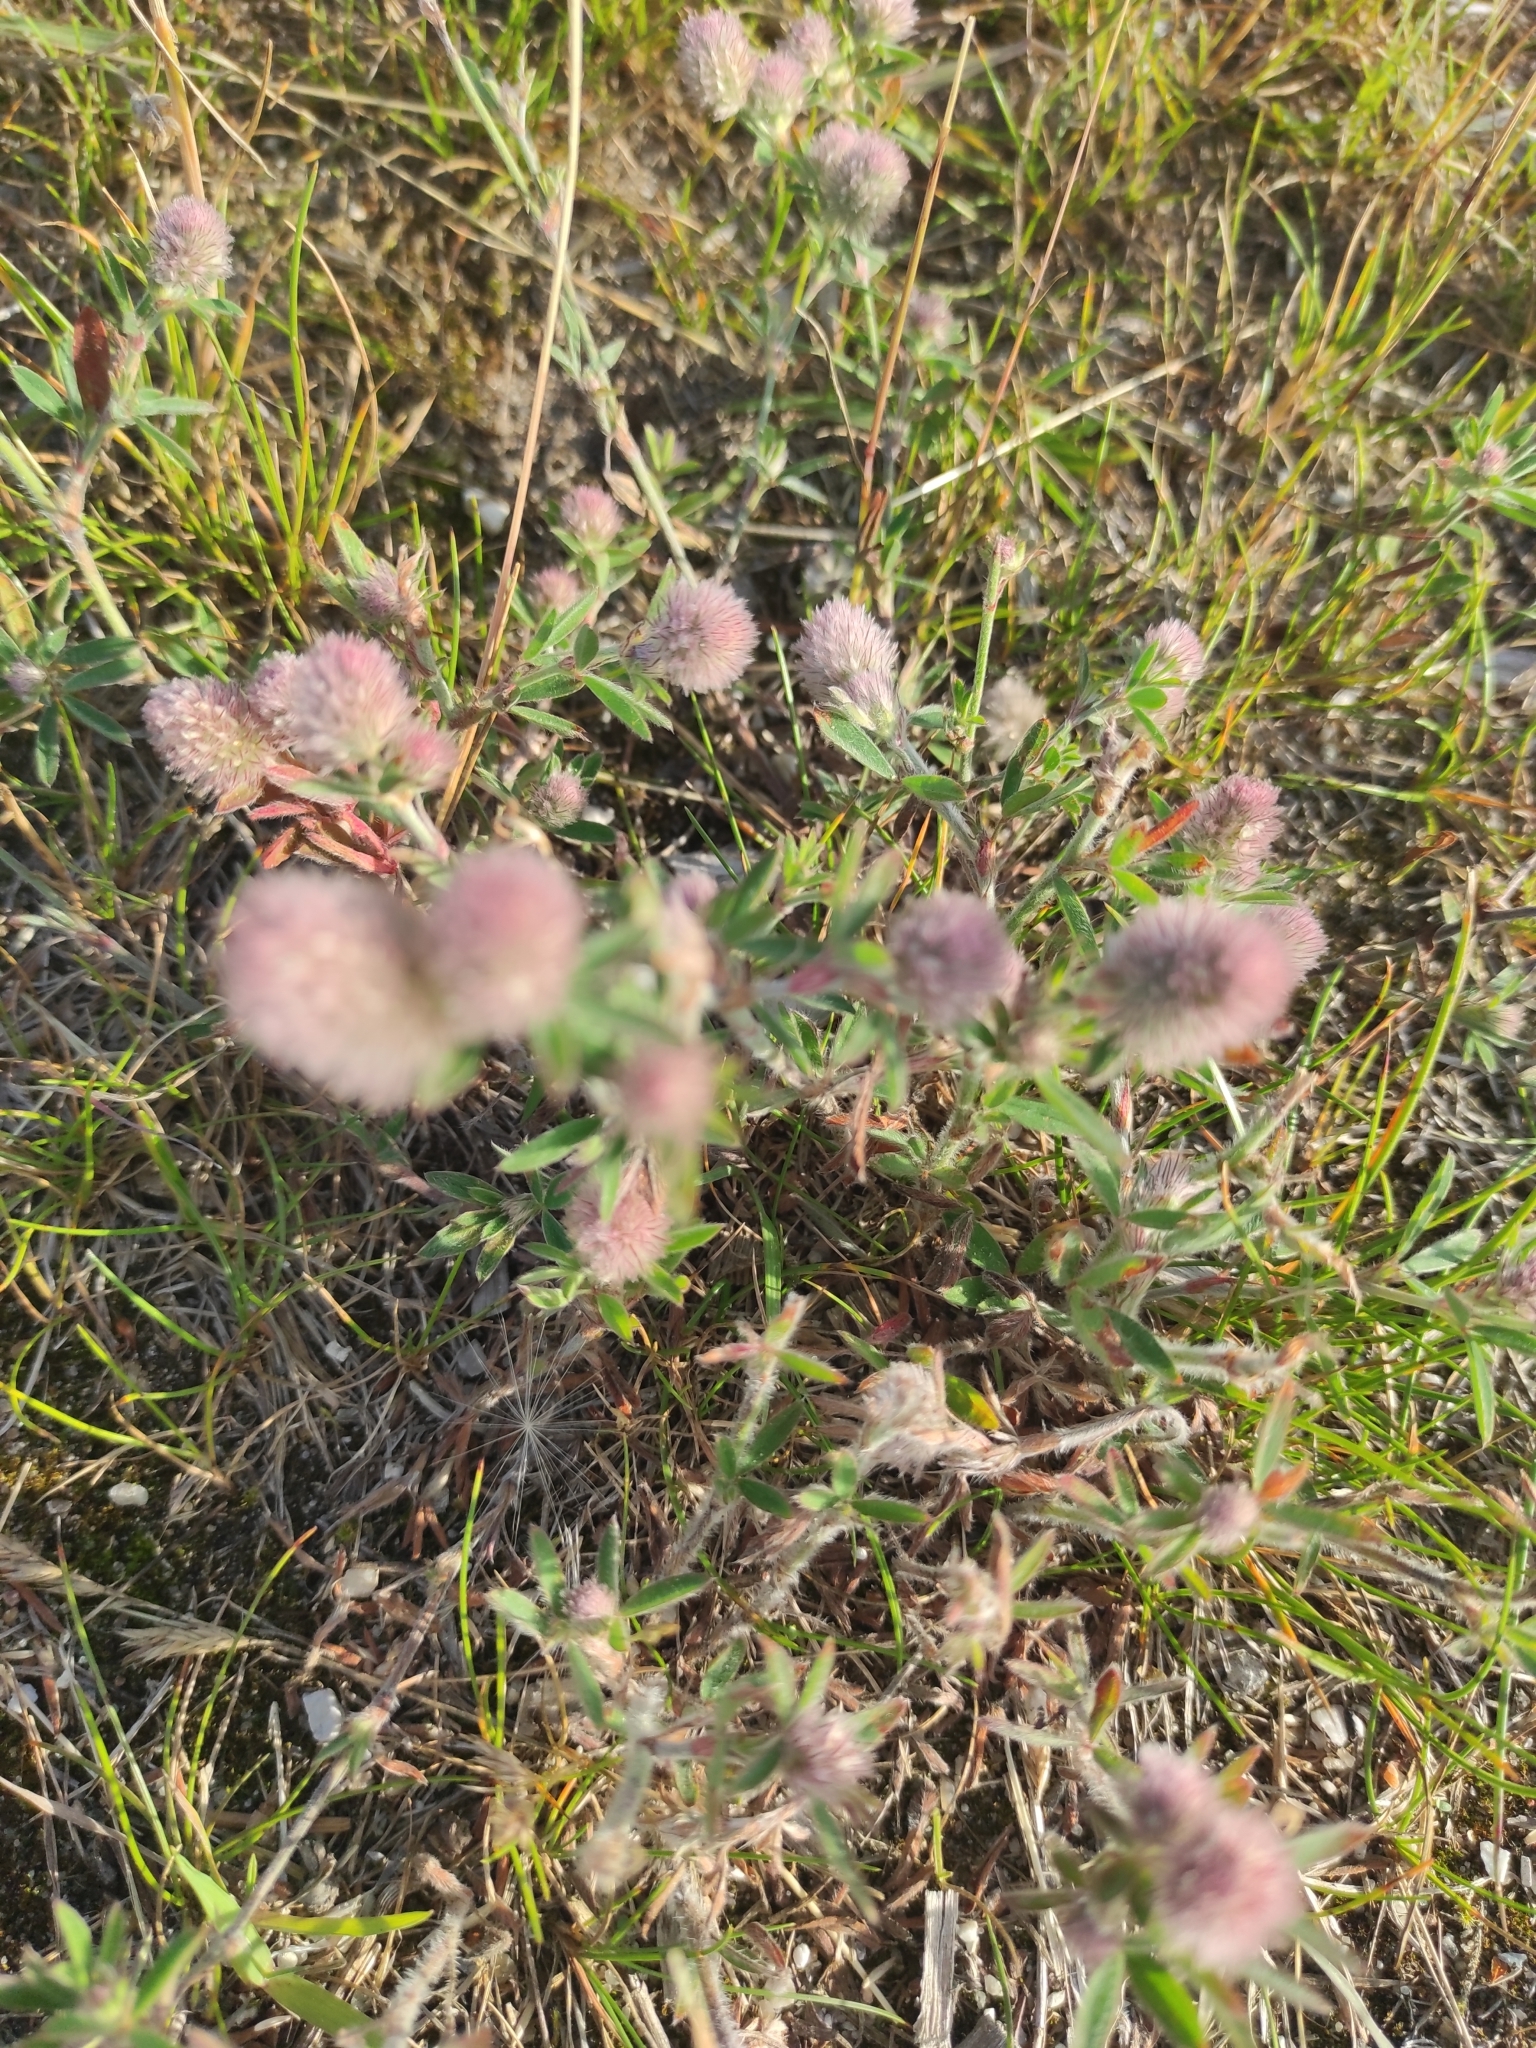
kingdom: Plantae
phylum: Tracheophyta
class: Magnoliopsida
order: Fabales
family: Fabaceae
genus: Trifolium
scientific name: Trifolium arvense
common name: Hare's-foot clover
